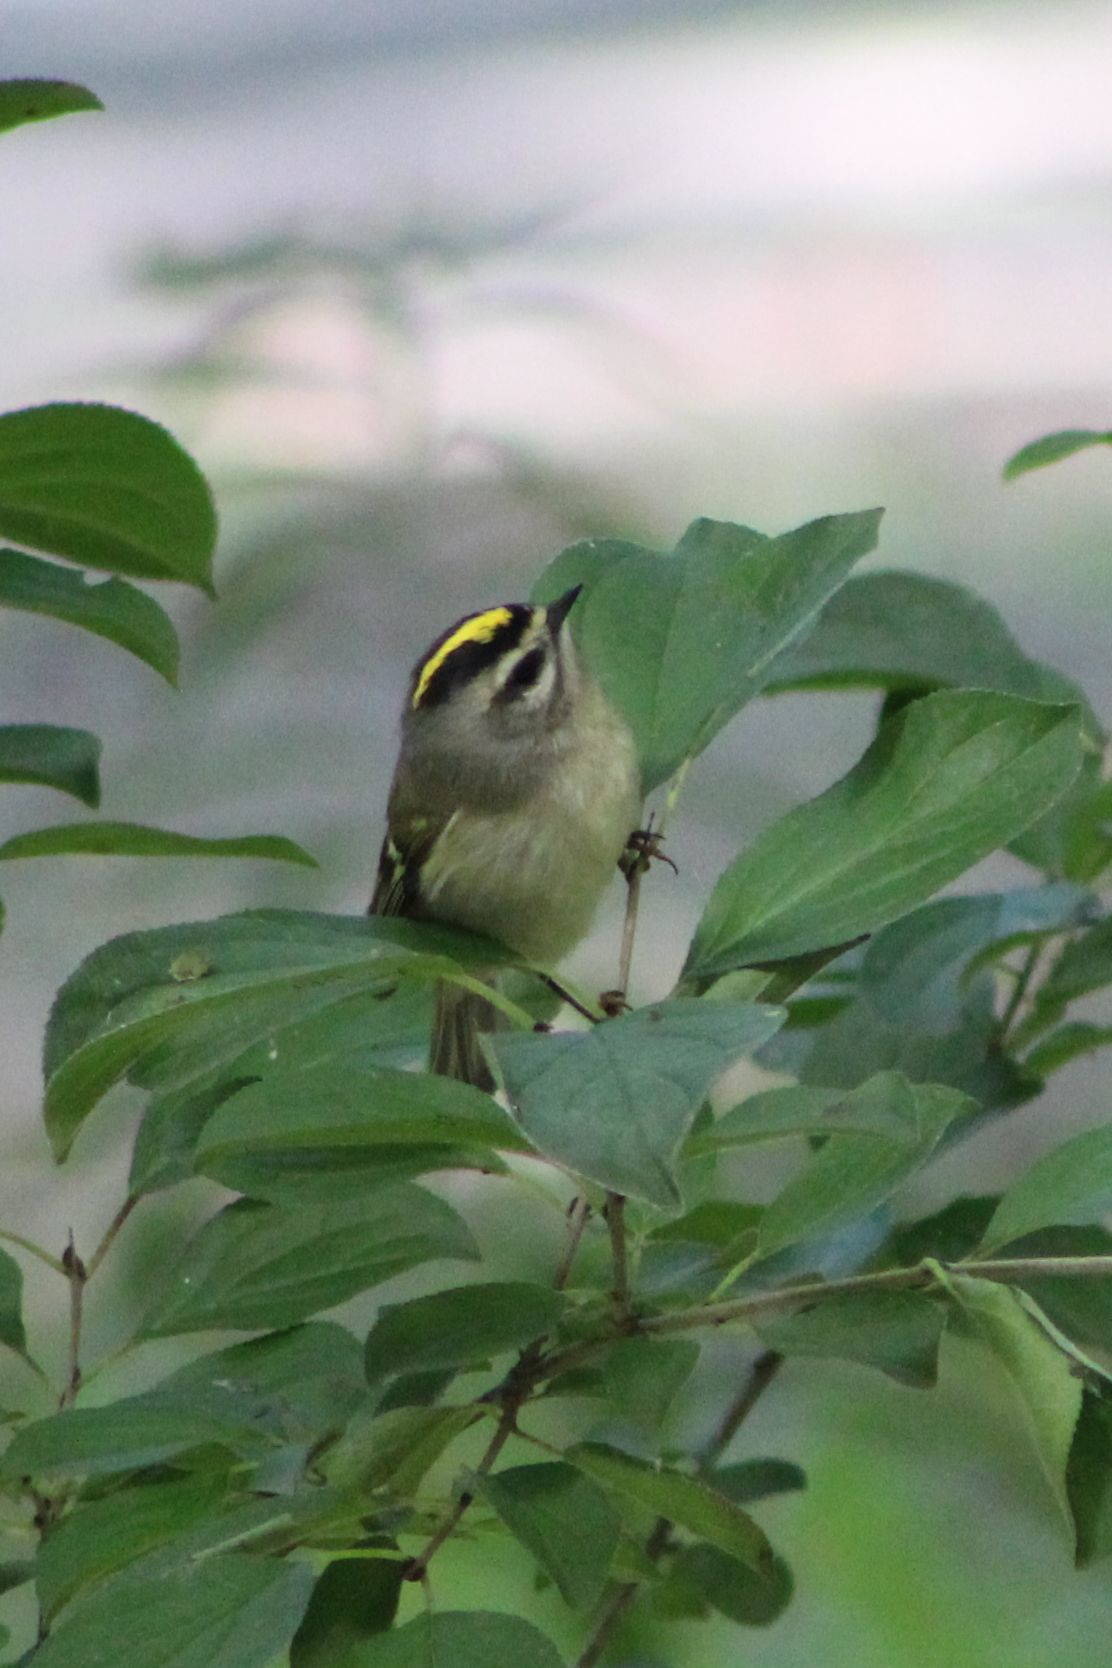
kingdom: Animalia
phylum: Chordata
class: Aves
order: Passeriformes
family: Regulidae
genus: Regulus
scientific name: Regulus satrapa
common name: Golden-crowned kinglet
